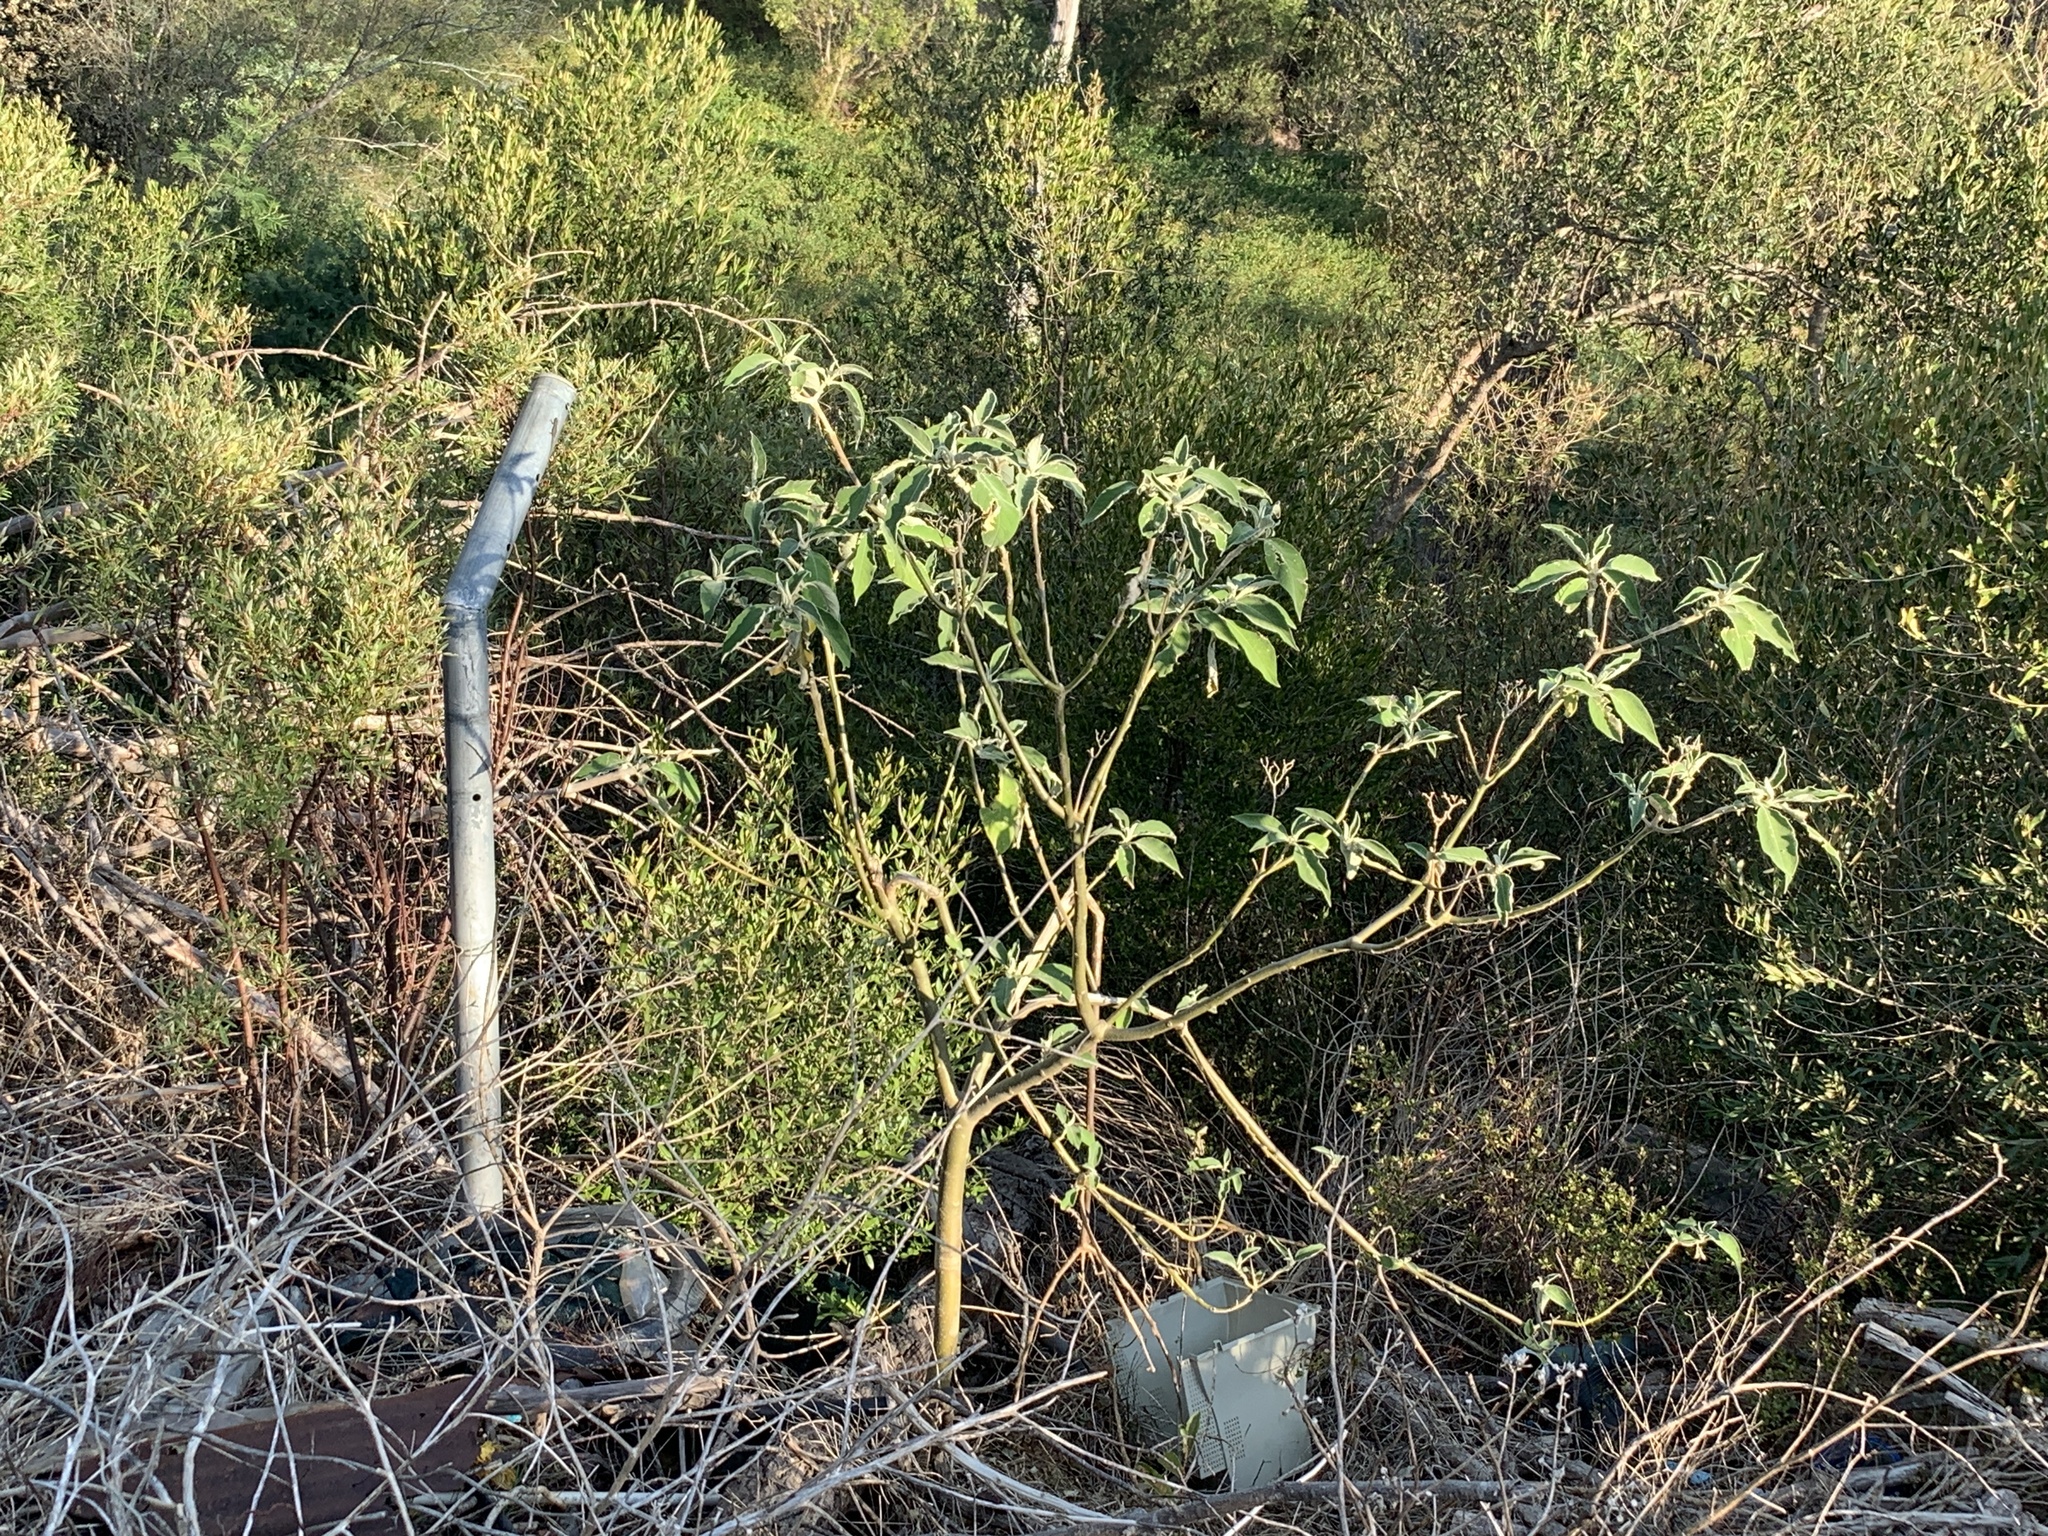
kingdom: Plantae
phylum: Tracheophyta
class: Magnoliopsida
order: Solanales
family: Solanaceae
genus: Solanum
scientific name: Solanum mauritianum
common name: Earleaf nightshade
